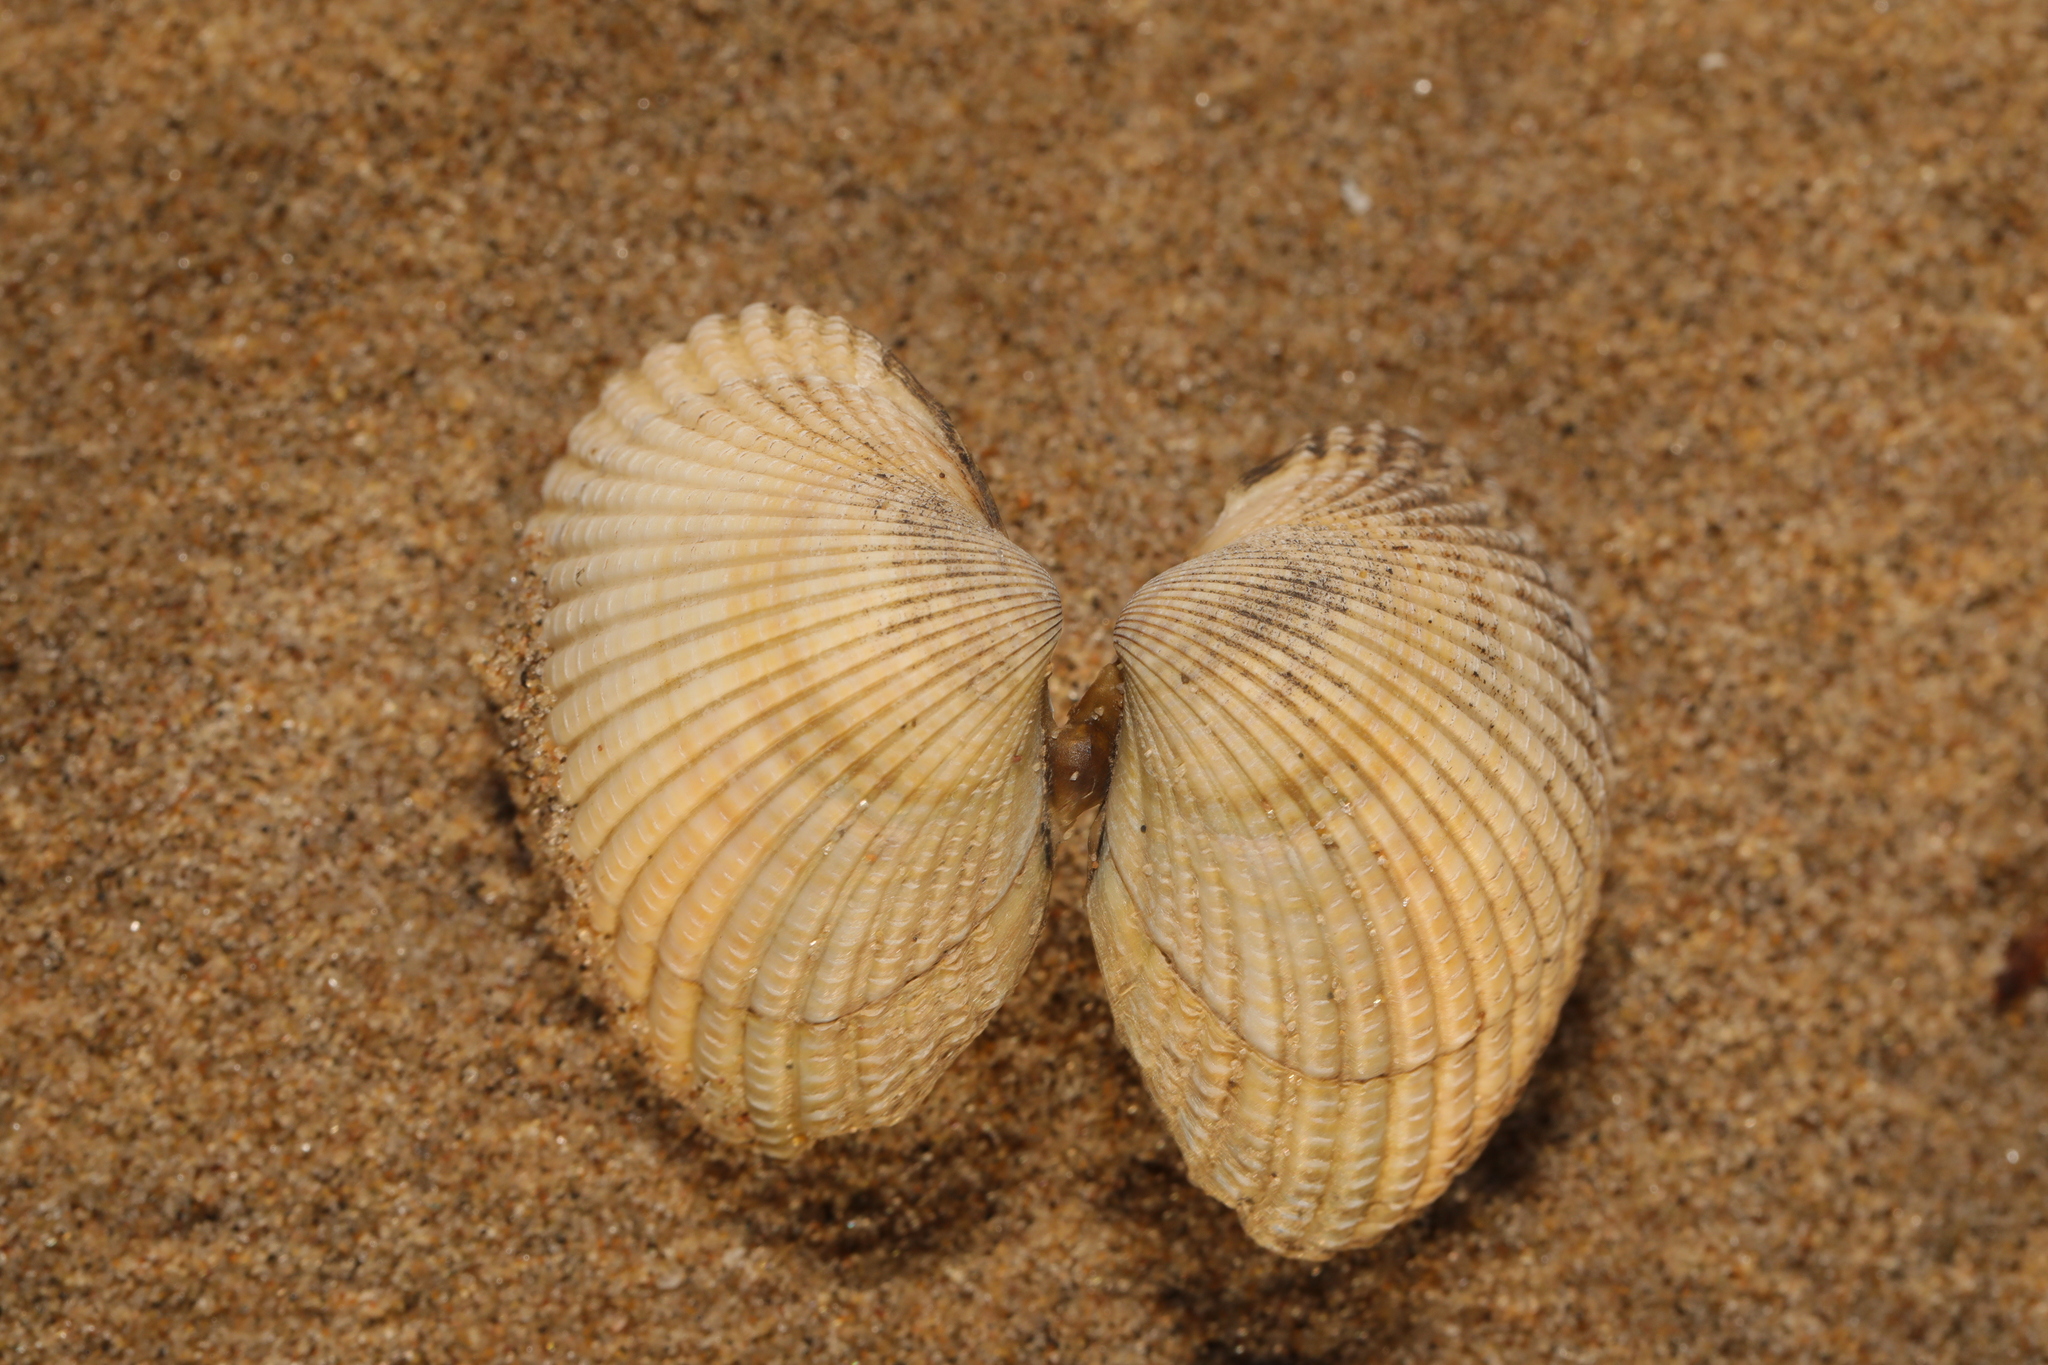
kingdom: Animalia
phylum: Mollusca
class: Bivalvia
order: Cardiida
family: Cardiidae
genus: Cerastoderma
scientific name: Cerastoderma edule
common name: Common cockle
